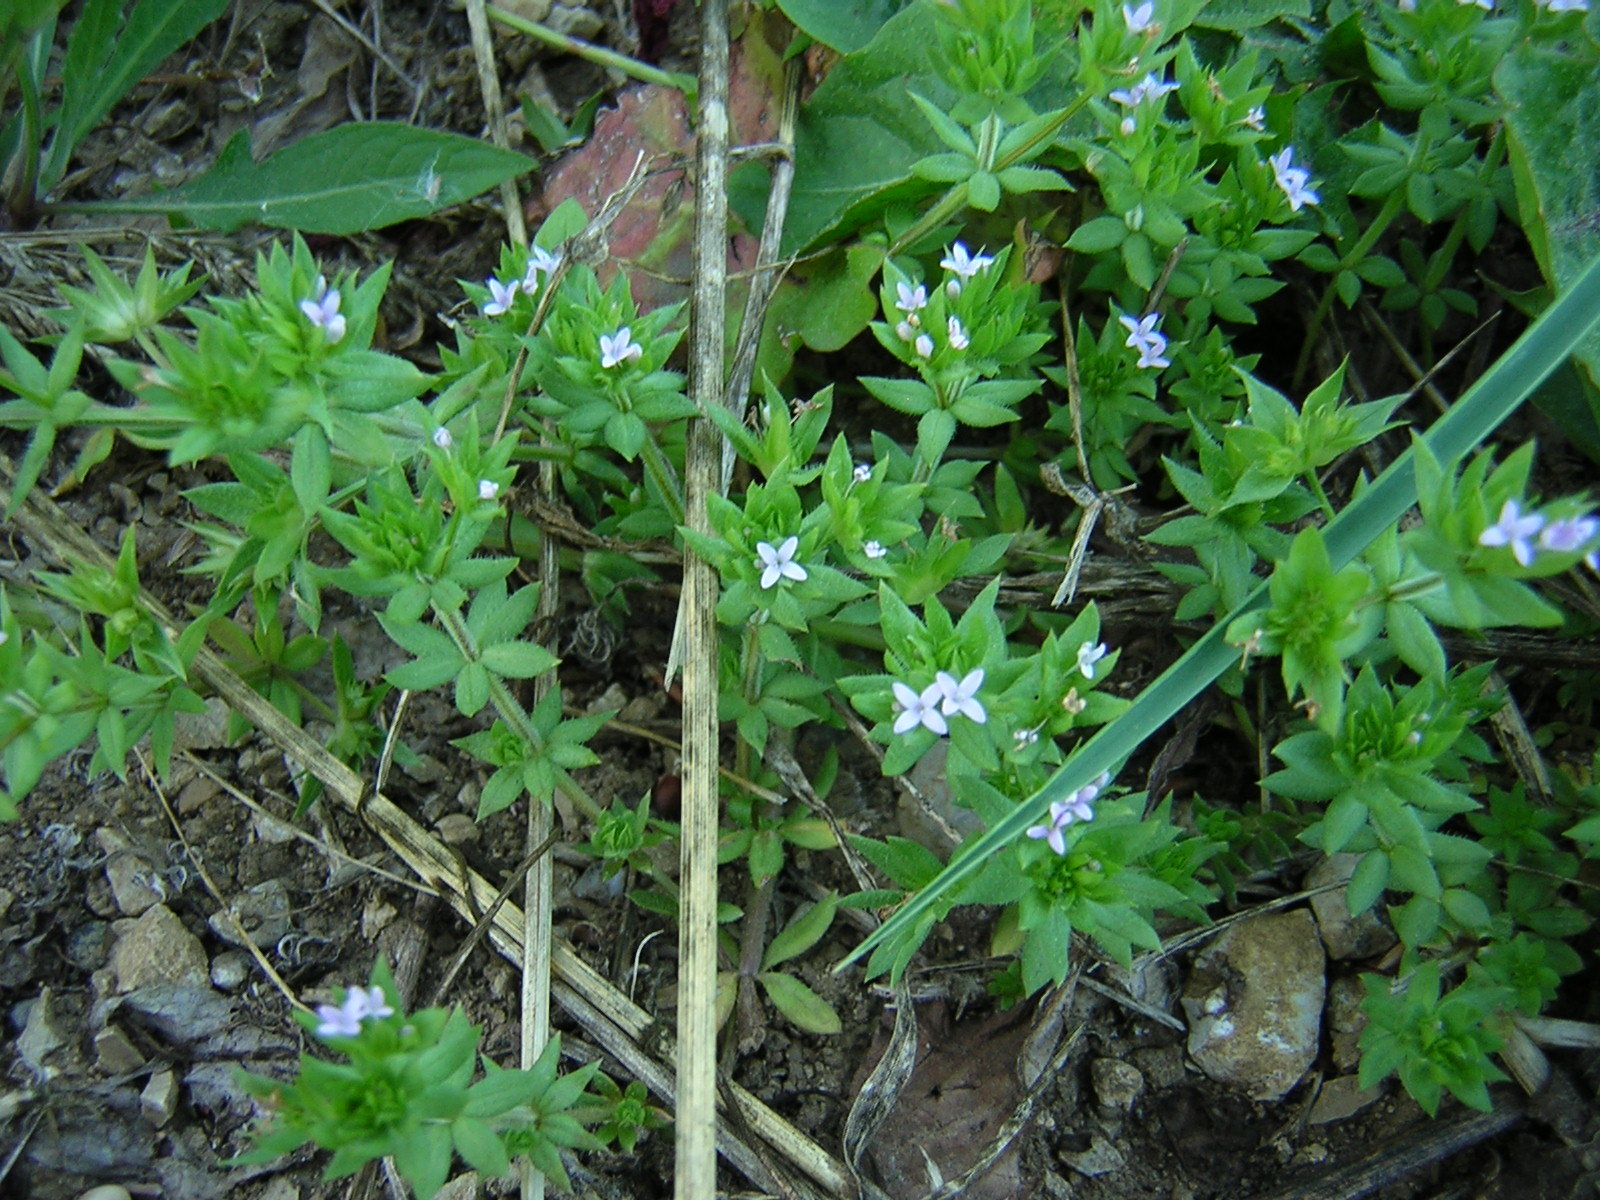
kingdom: Plantae
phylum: Tracheophyta
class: Magnoliopsida
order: Gentianales
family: Rubiaceae
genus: Sherardia
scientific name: Sherardia arvensis
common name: Field madder
